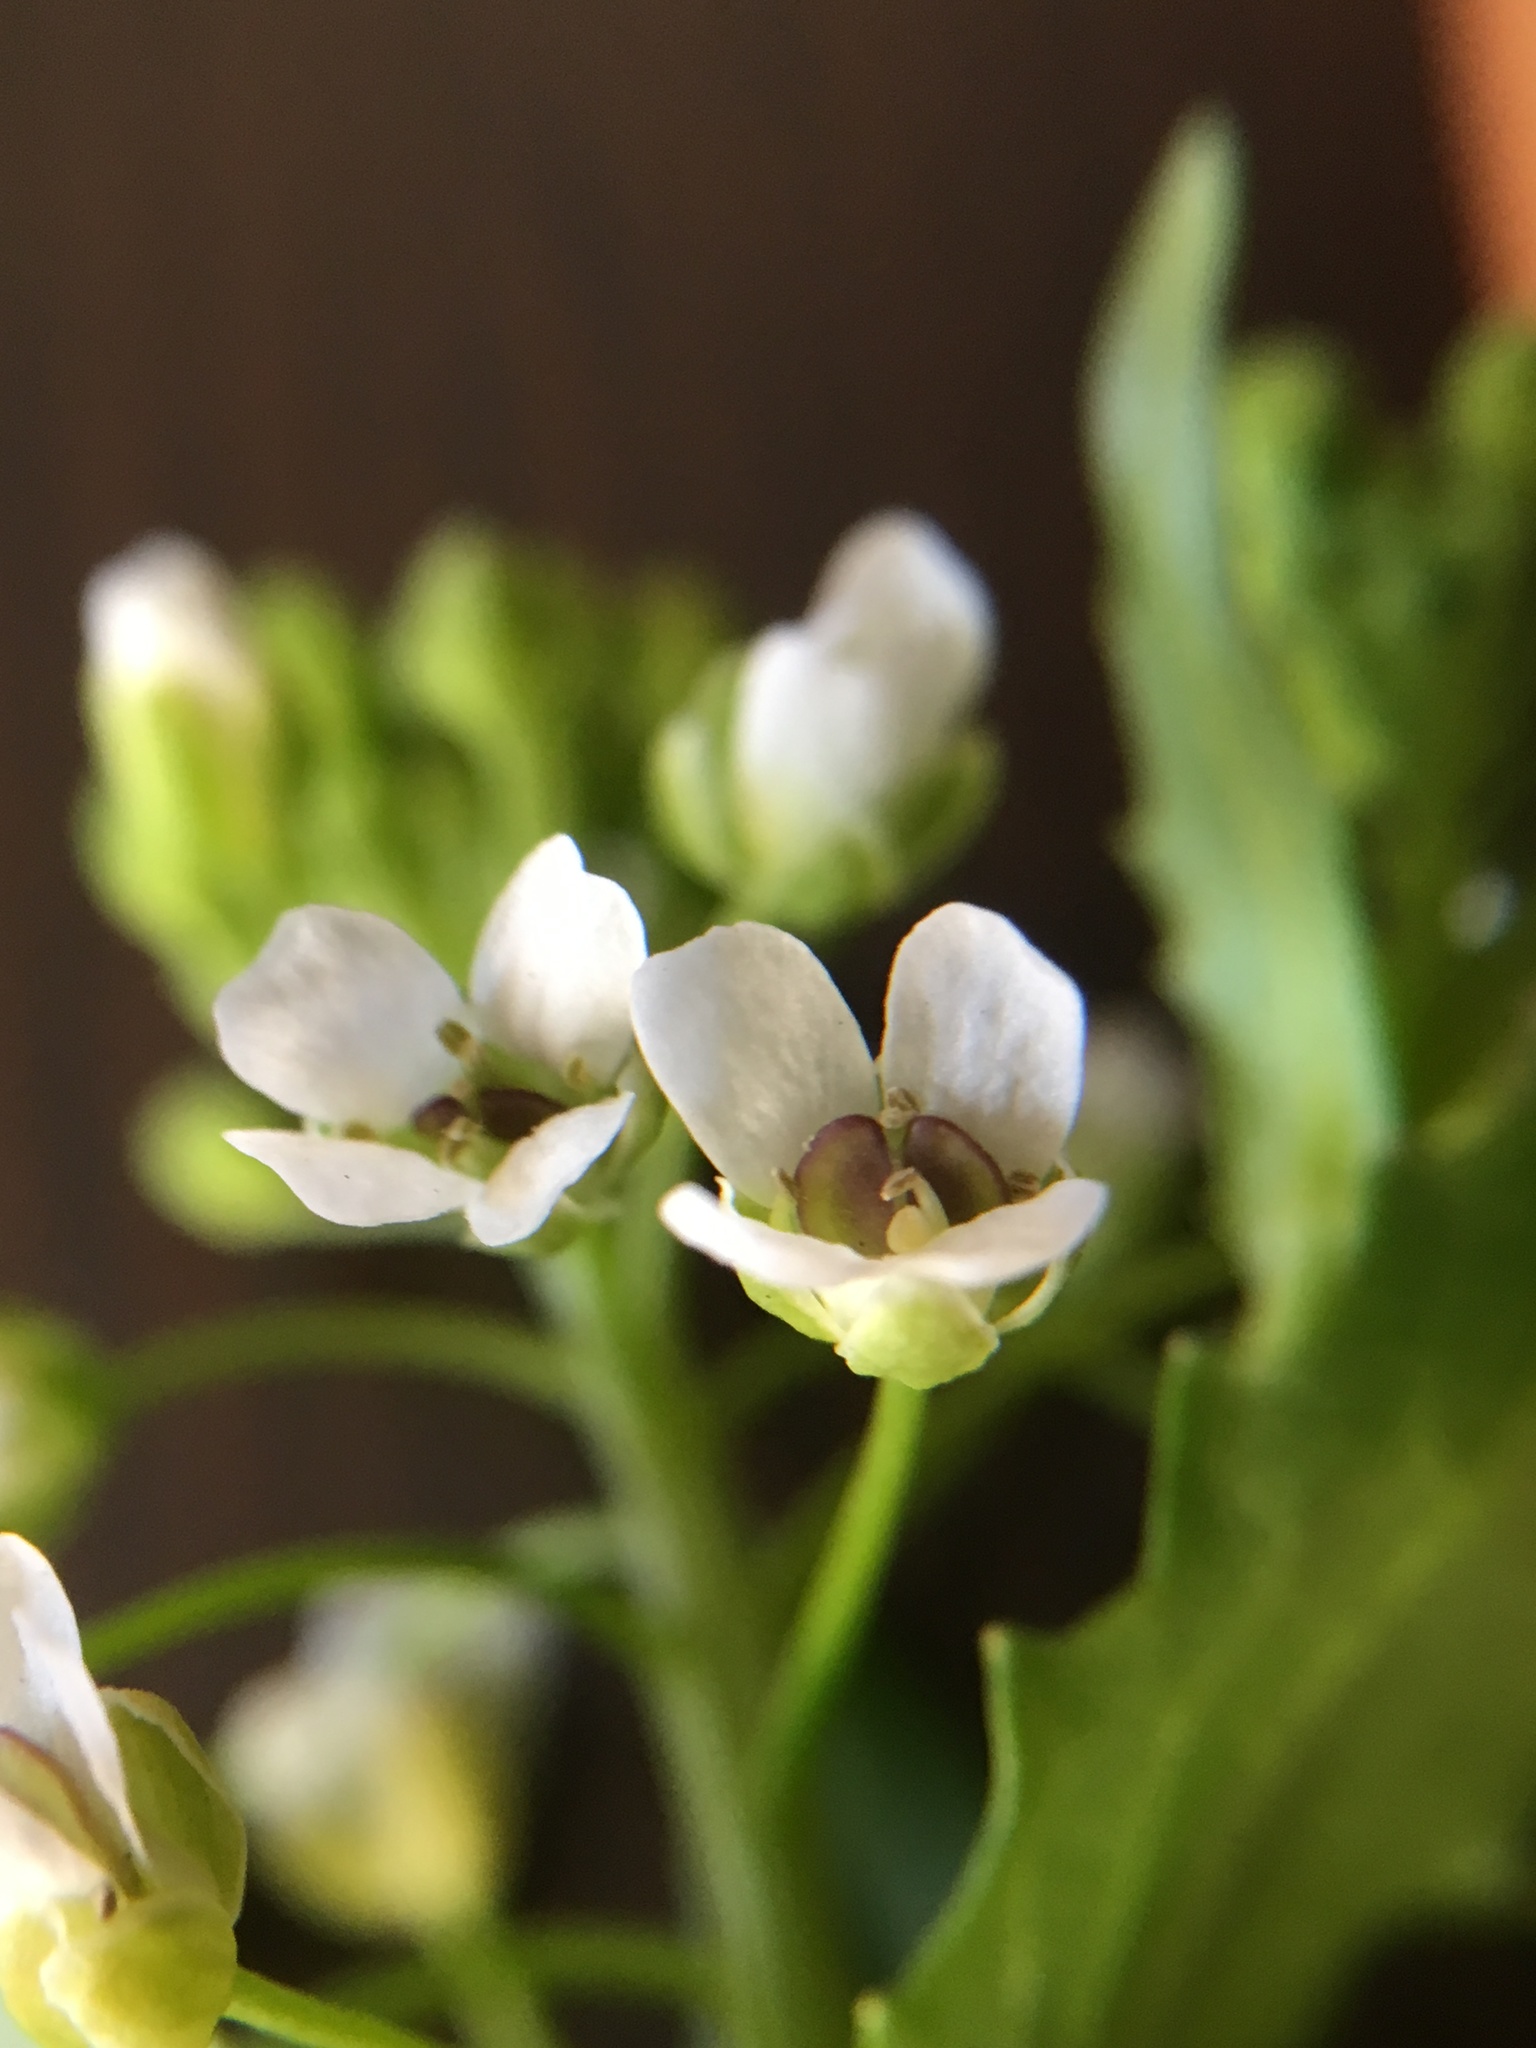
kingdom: Plantae
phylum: Tracheophyta
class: Magnoliopsida
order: Brassicales
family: Brassicaceae
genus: Thlaspi
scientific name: Thlaspi arvense
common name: Field pennycress
